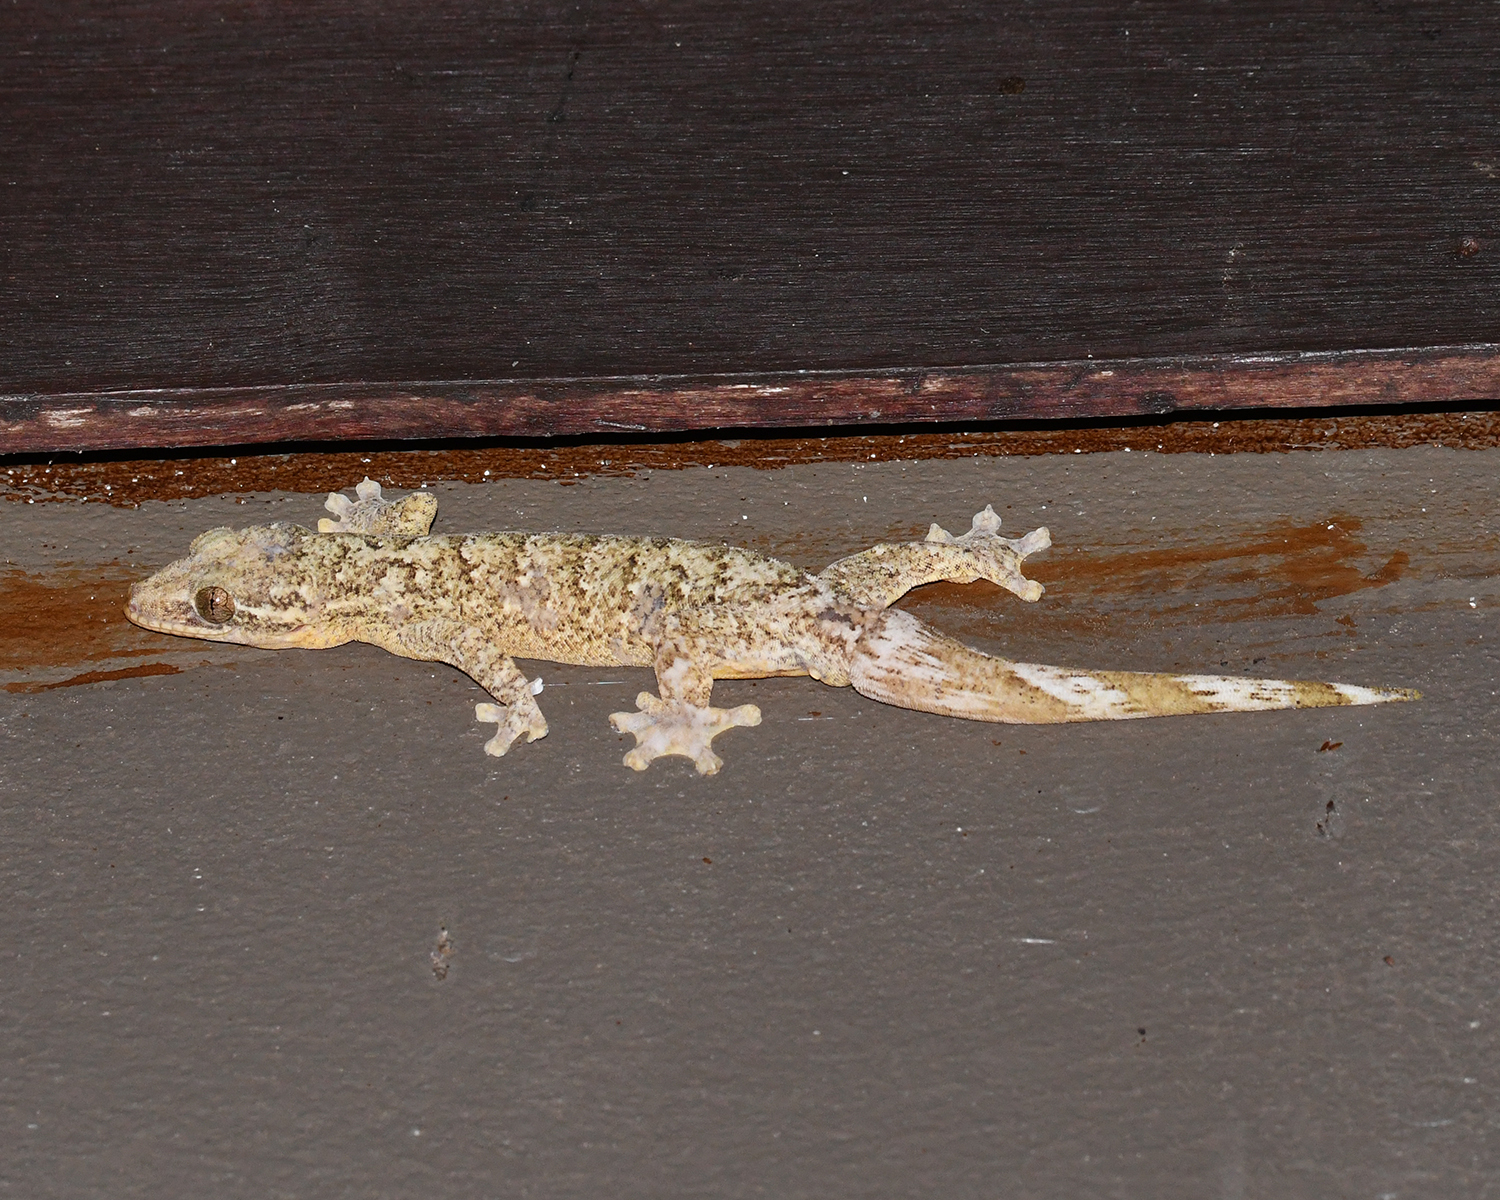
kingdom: Animalia
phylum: Chordata
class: Squamata
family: Phyllodactylidae
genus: Thecadactylus
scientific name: Thecadactylus rapicauda
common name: Turnip-tailed gecko
